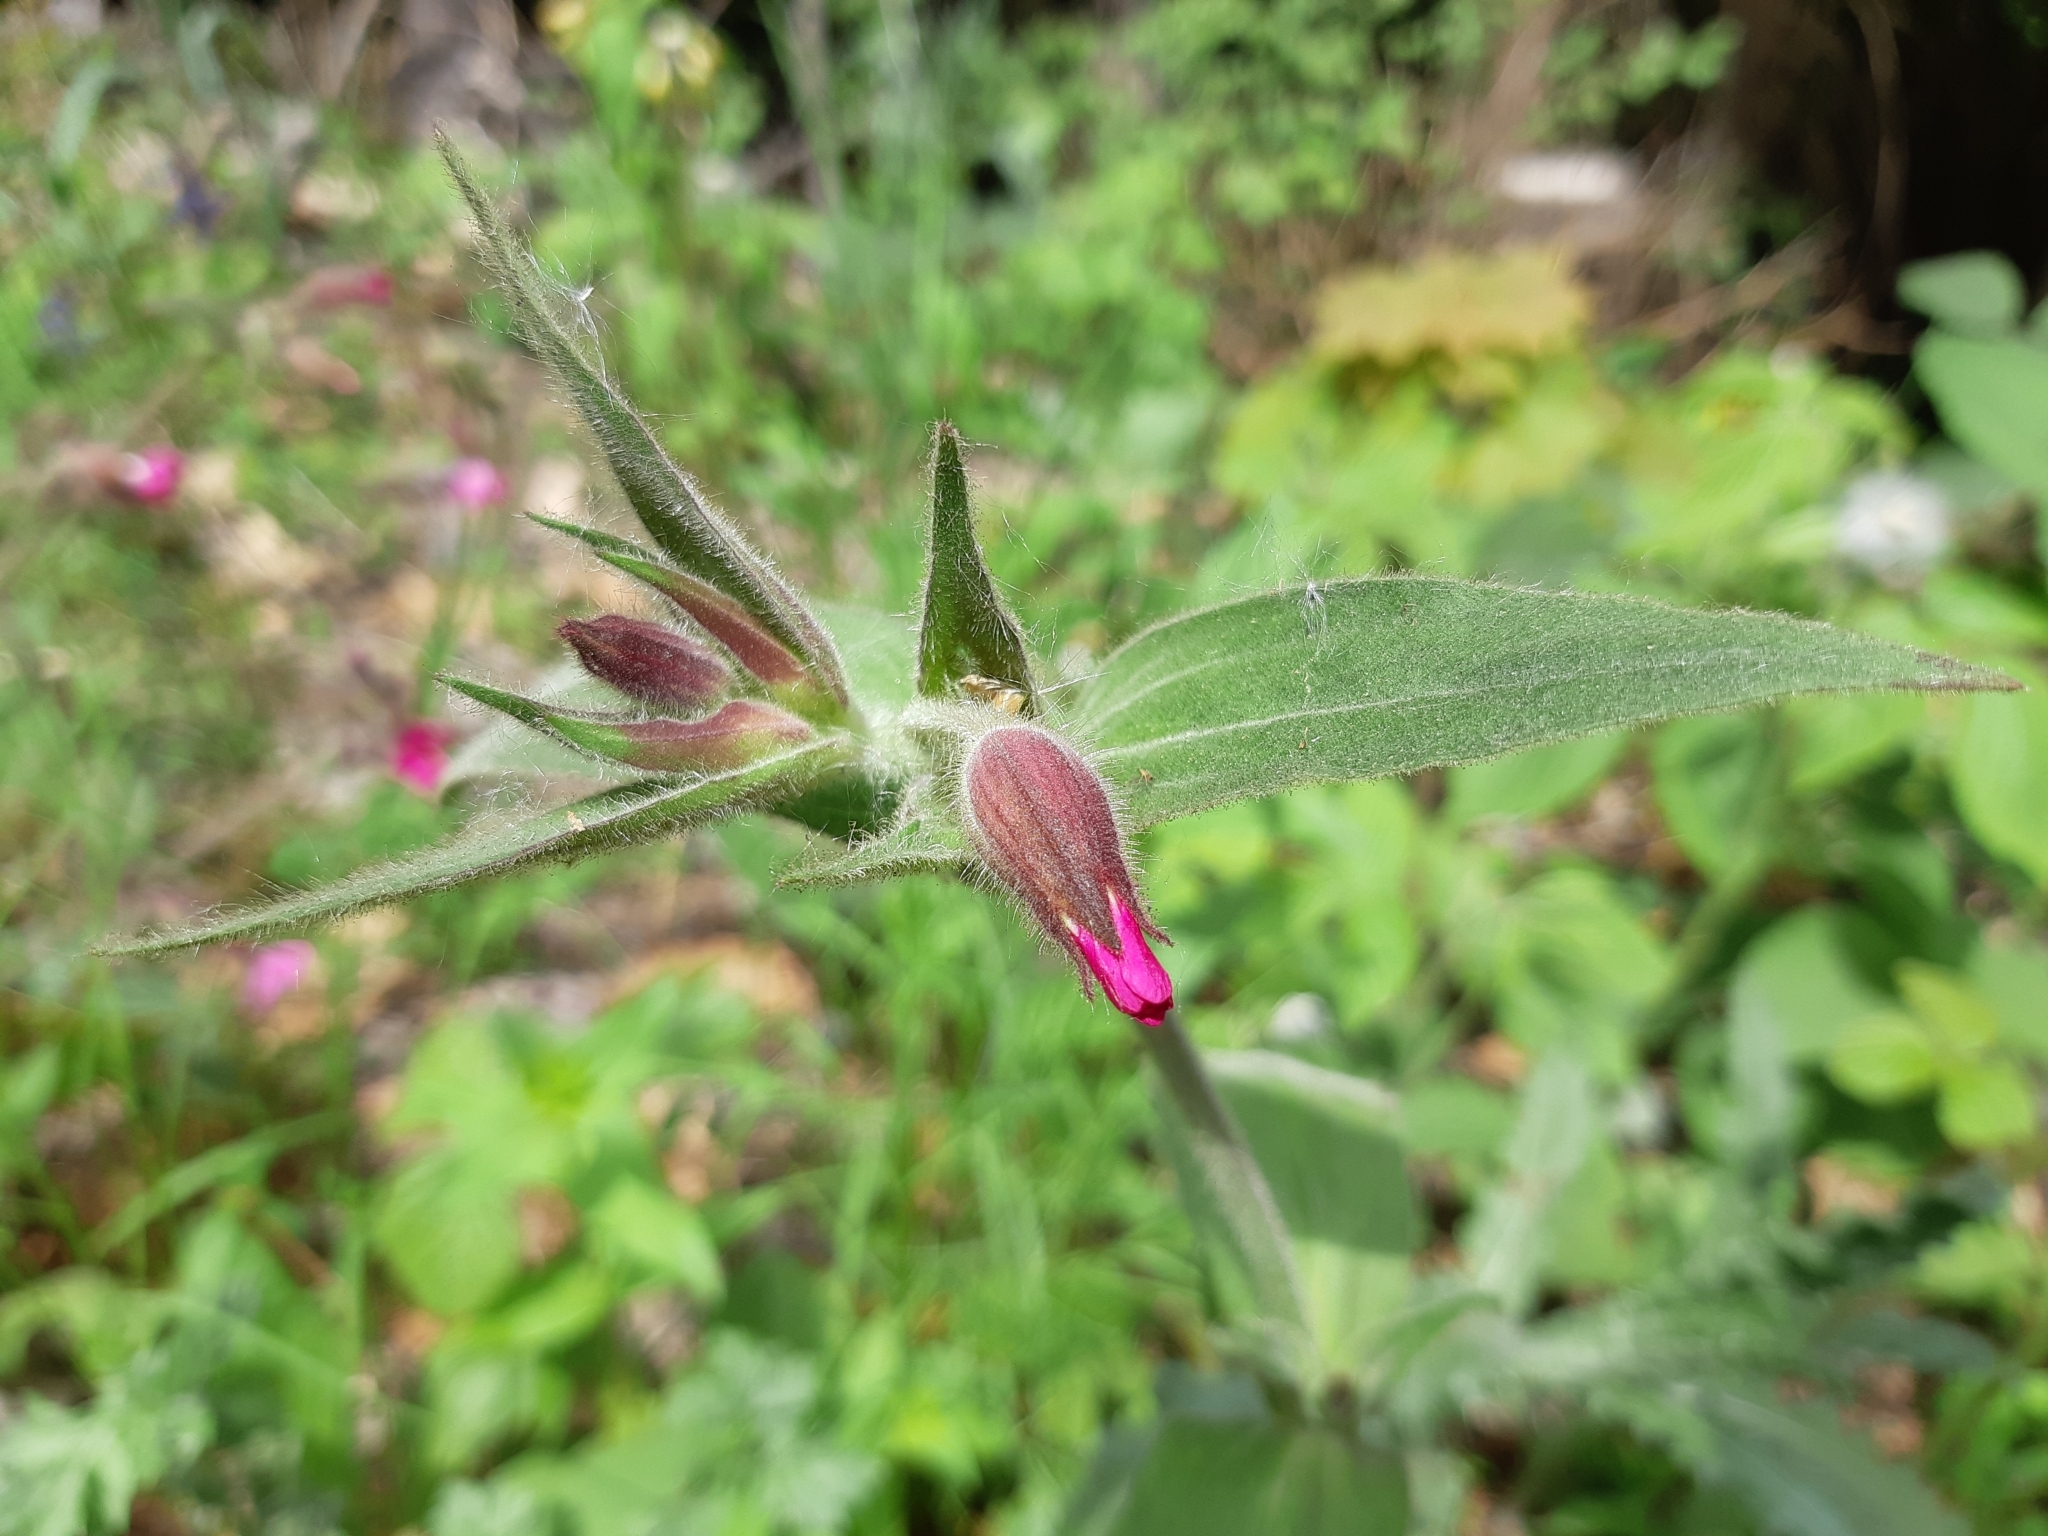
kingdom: Plantae
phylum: Tracheophyta
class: Magnoliopsida
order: Caryophyllales
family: Caryophyllaceae
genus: Silene
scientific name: Silene dioica
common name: Red campion
